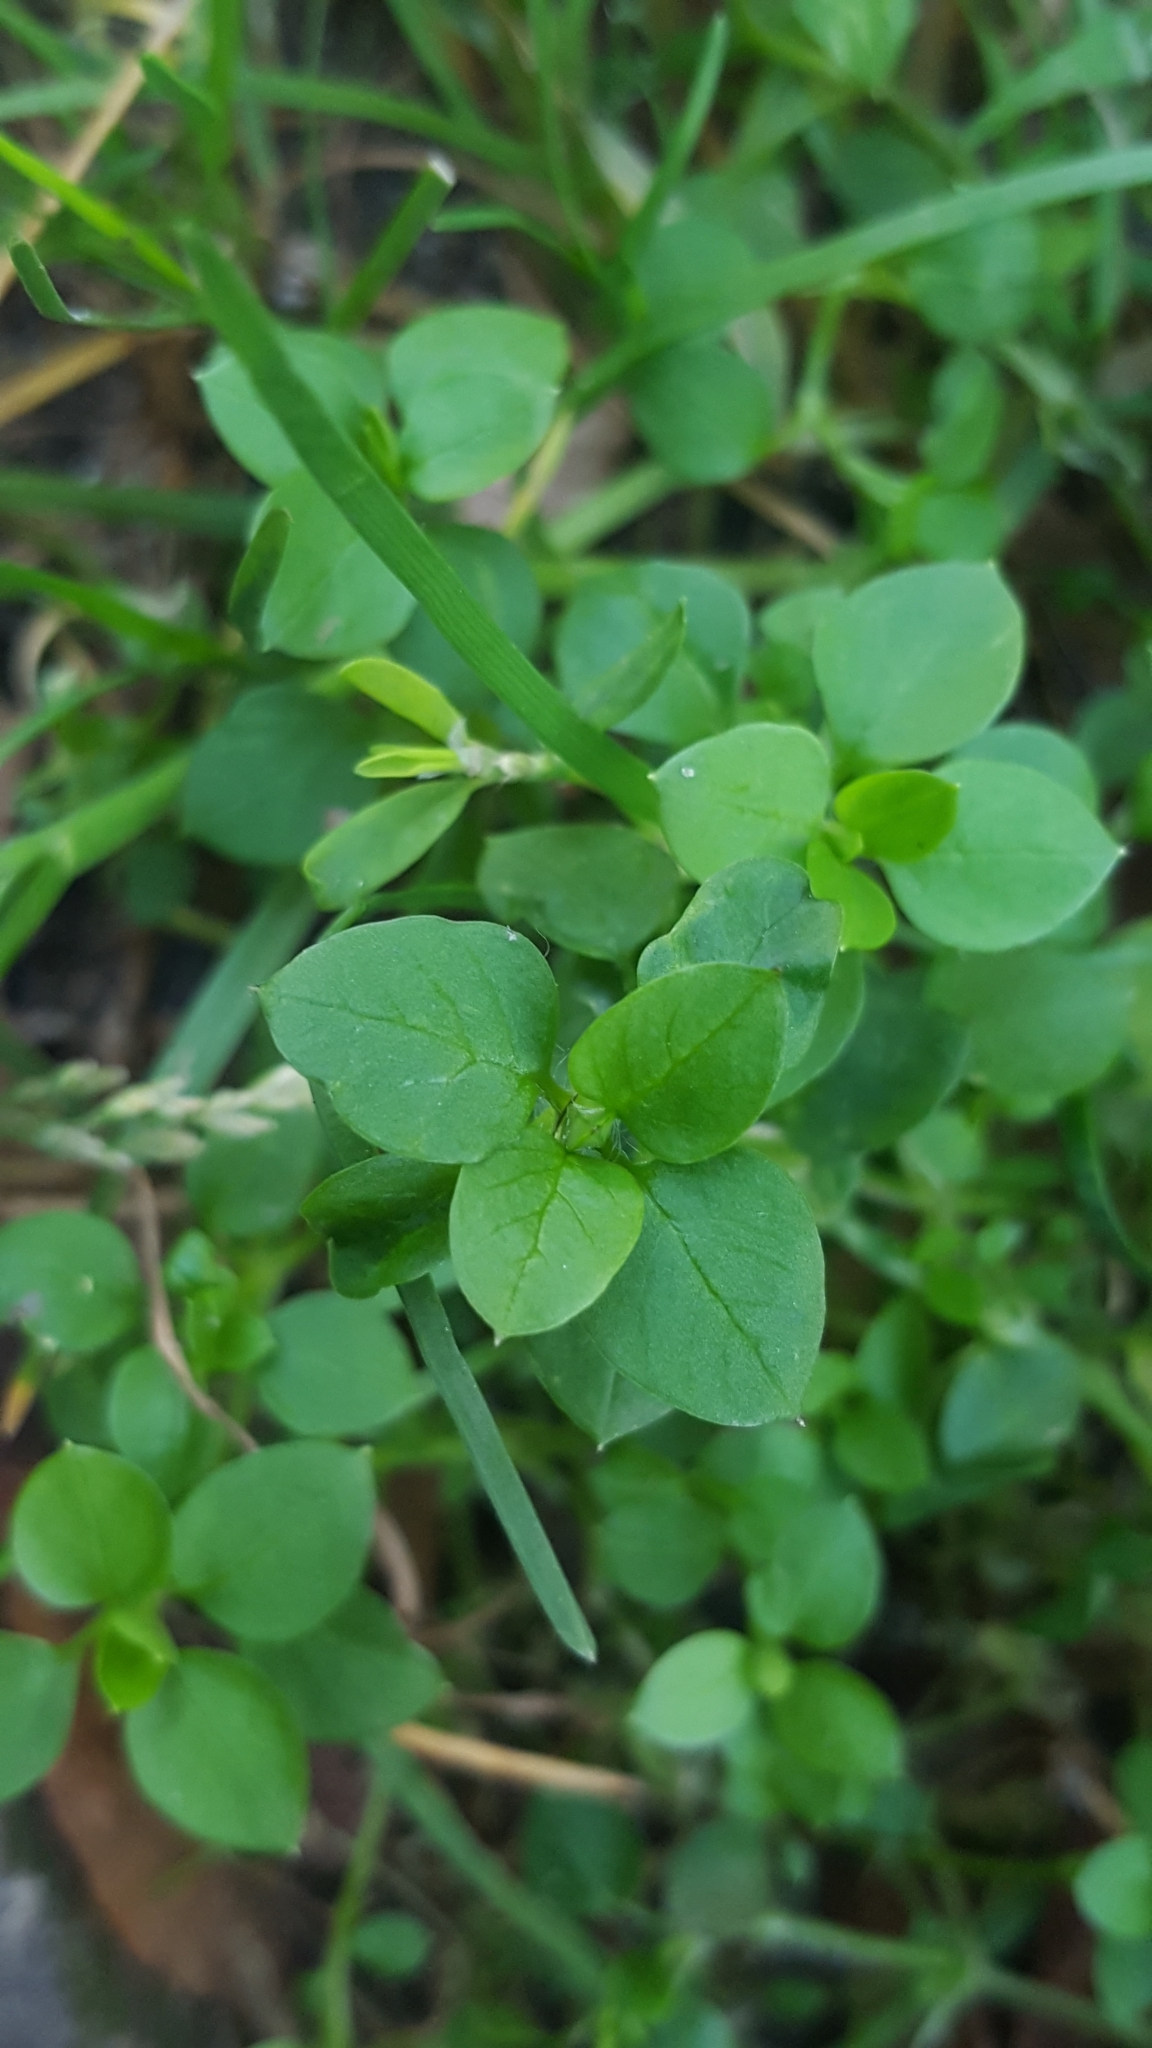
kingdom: Plantae
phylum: Tracheophyta
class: Magnoliopsida
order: Caryophyllales
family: Caryophyllaceae
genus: Stellaria
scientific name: Stellaria media
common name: Common chickweed
